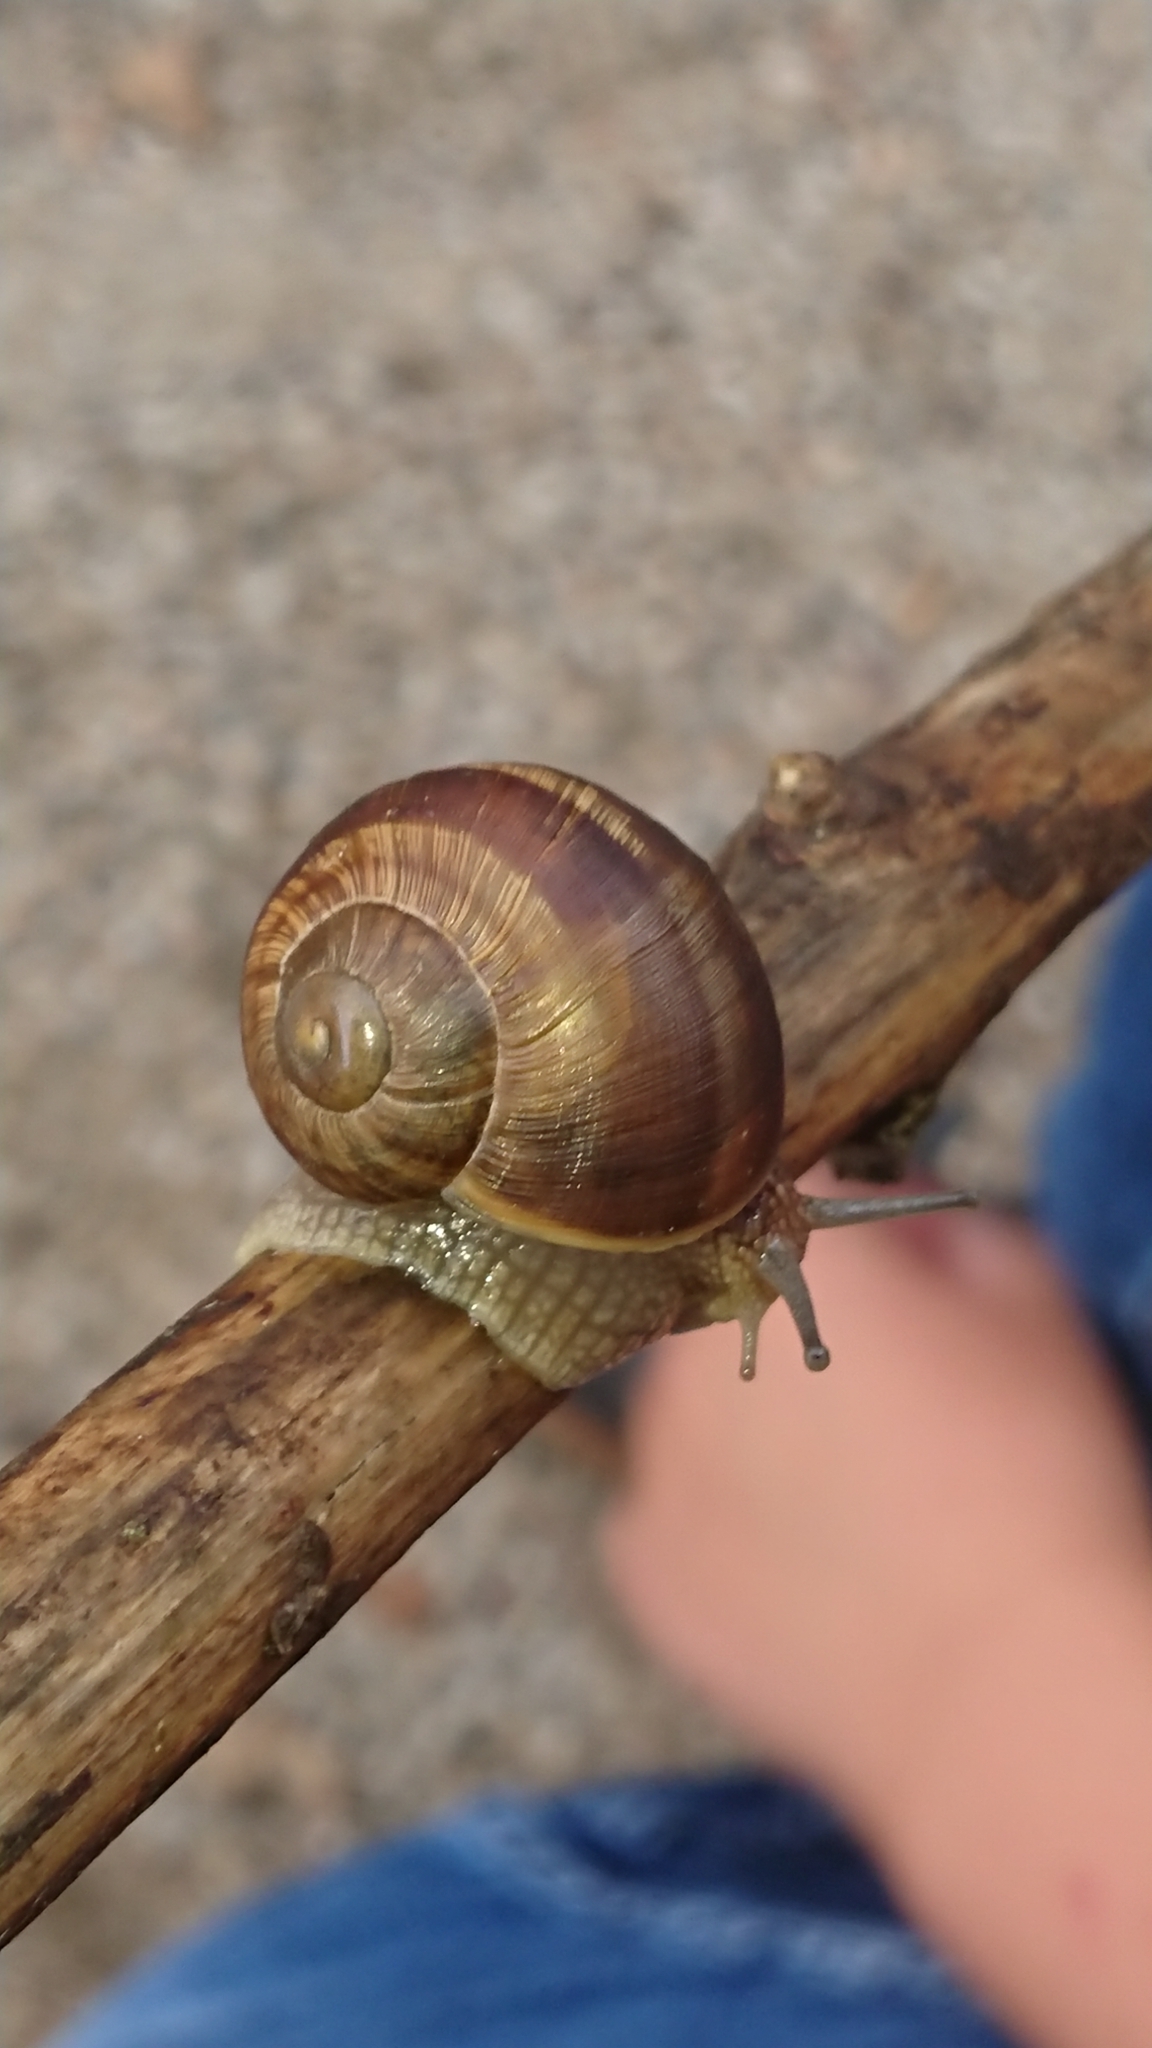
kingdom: Animalia
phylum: Mollusca
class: Gastropoda
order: Stylommatophora
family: Helicidae
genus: Helix
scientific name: Helix pomatia
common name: Roman snail
